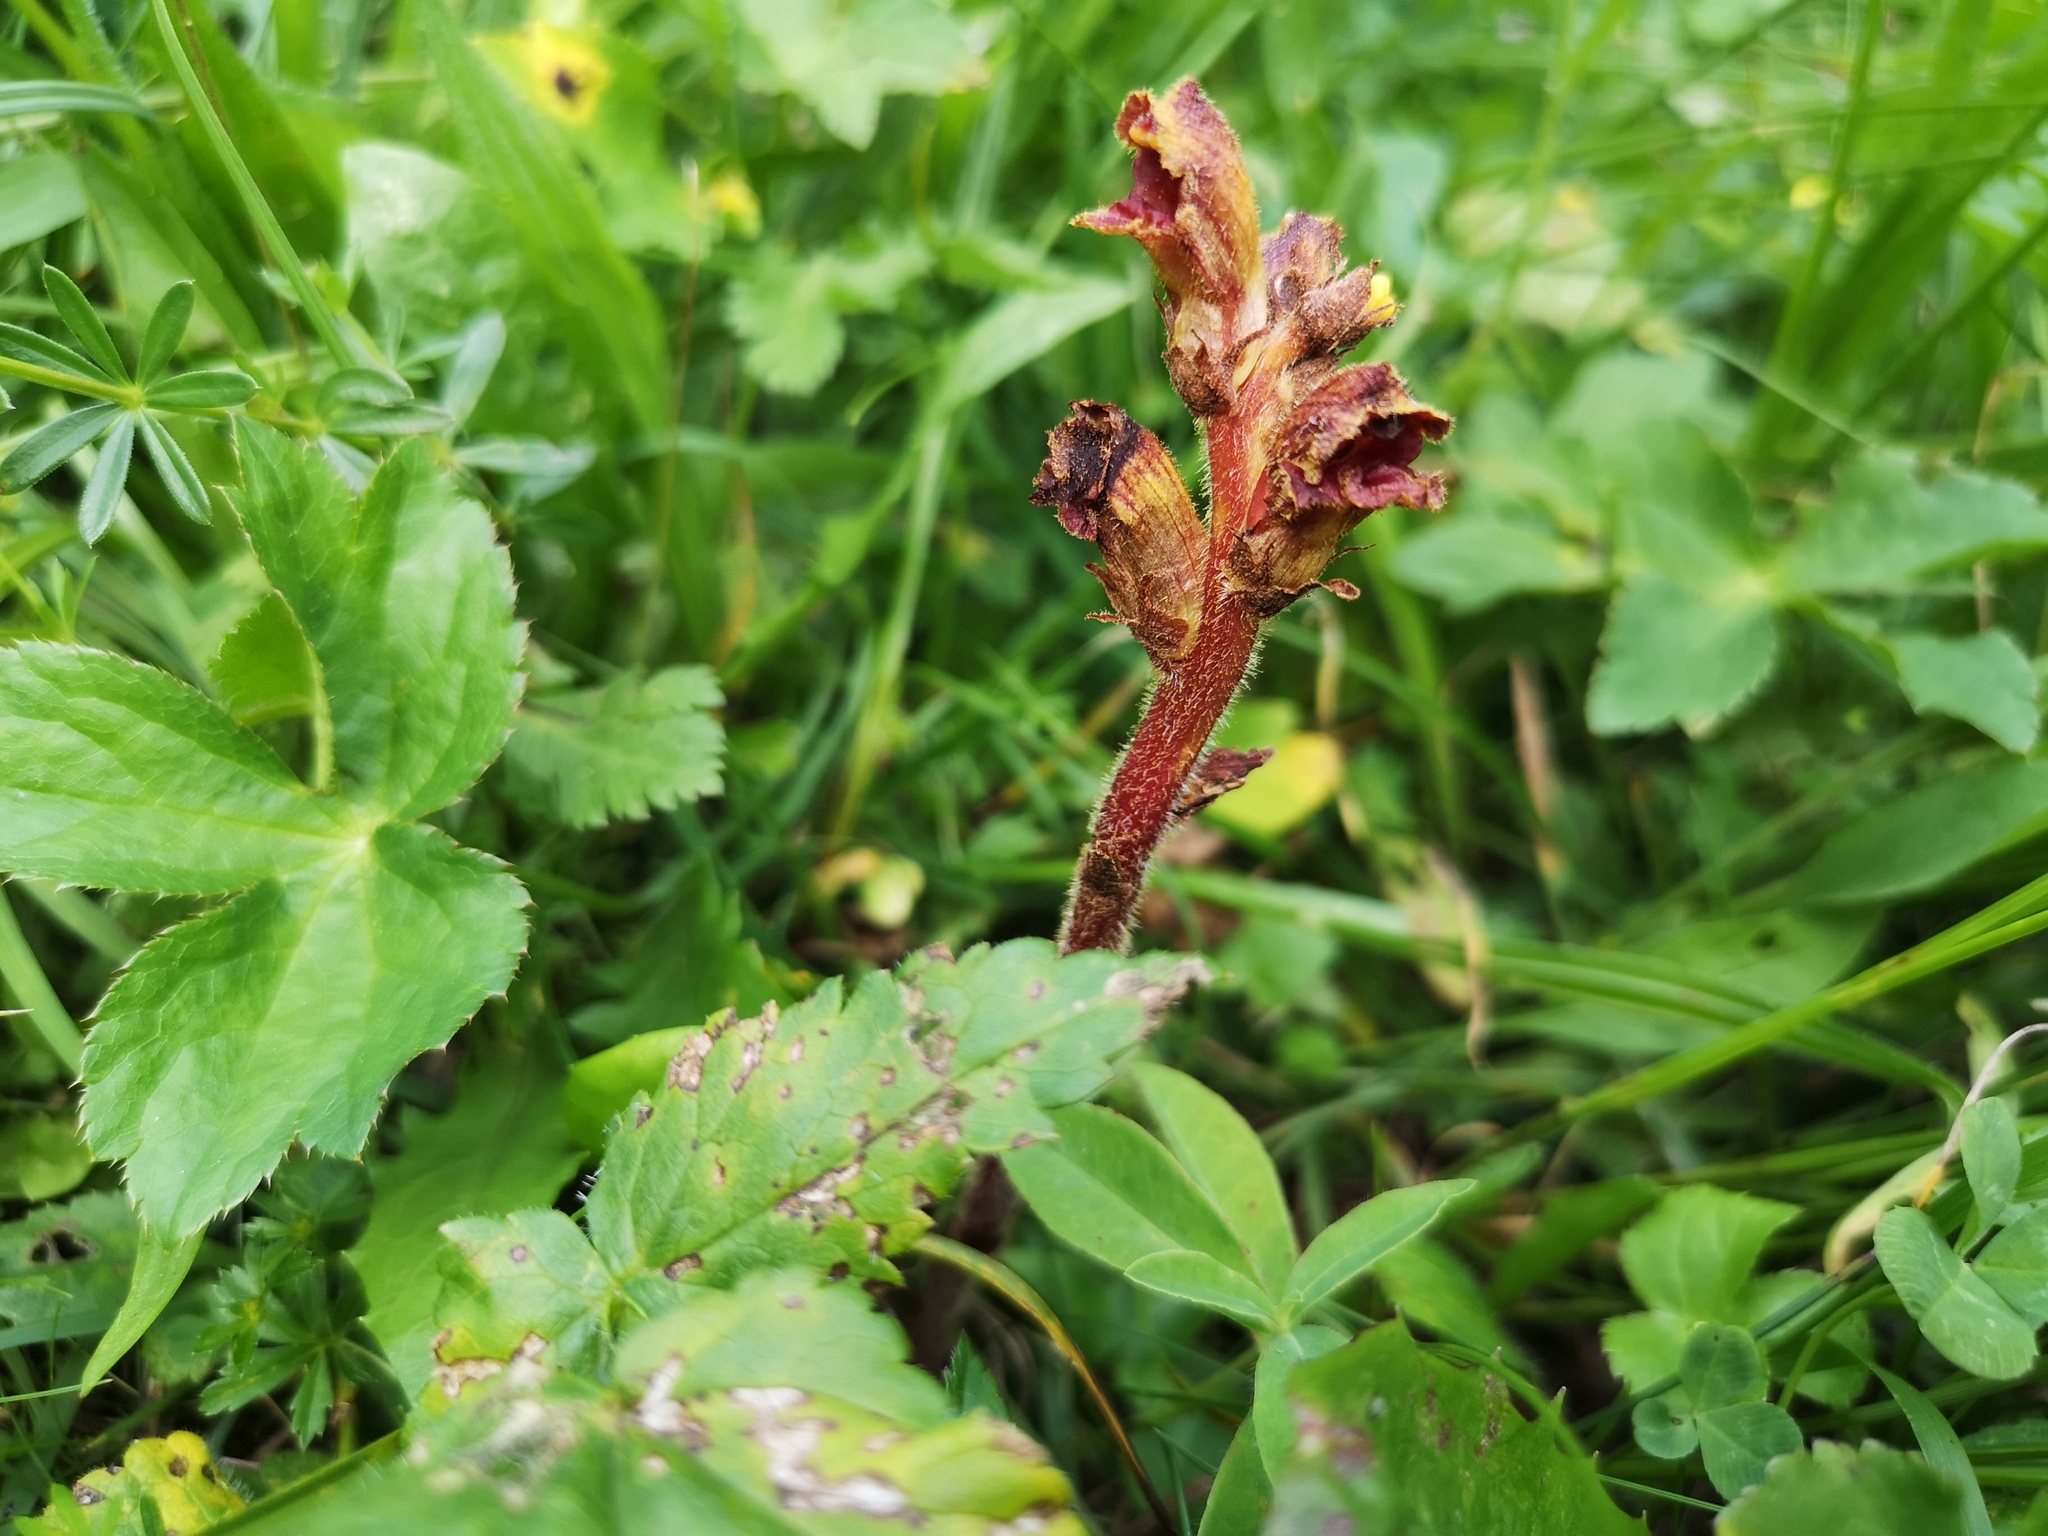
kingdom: Plantae
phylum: Tracheophyta
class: Magnoliopsida
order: Lamiales
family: Orobanchaceae
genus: Orobanche
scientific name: Orobanche gracilis
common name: Slender broomrape
